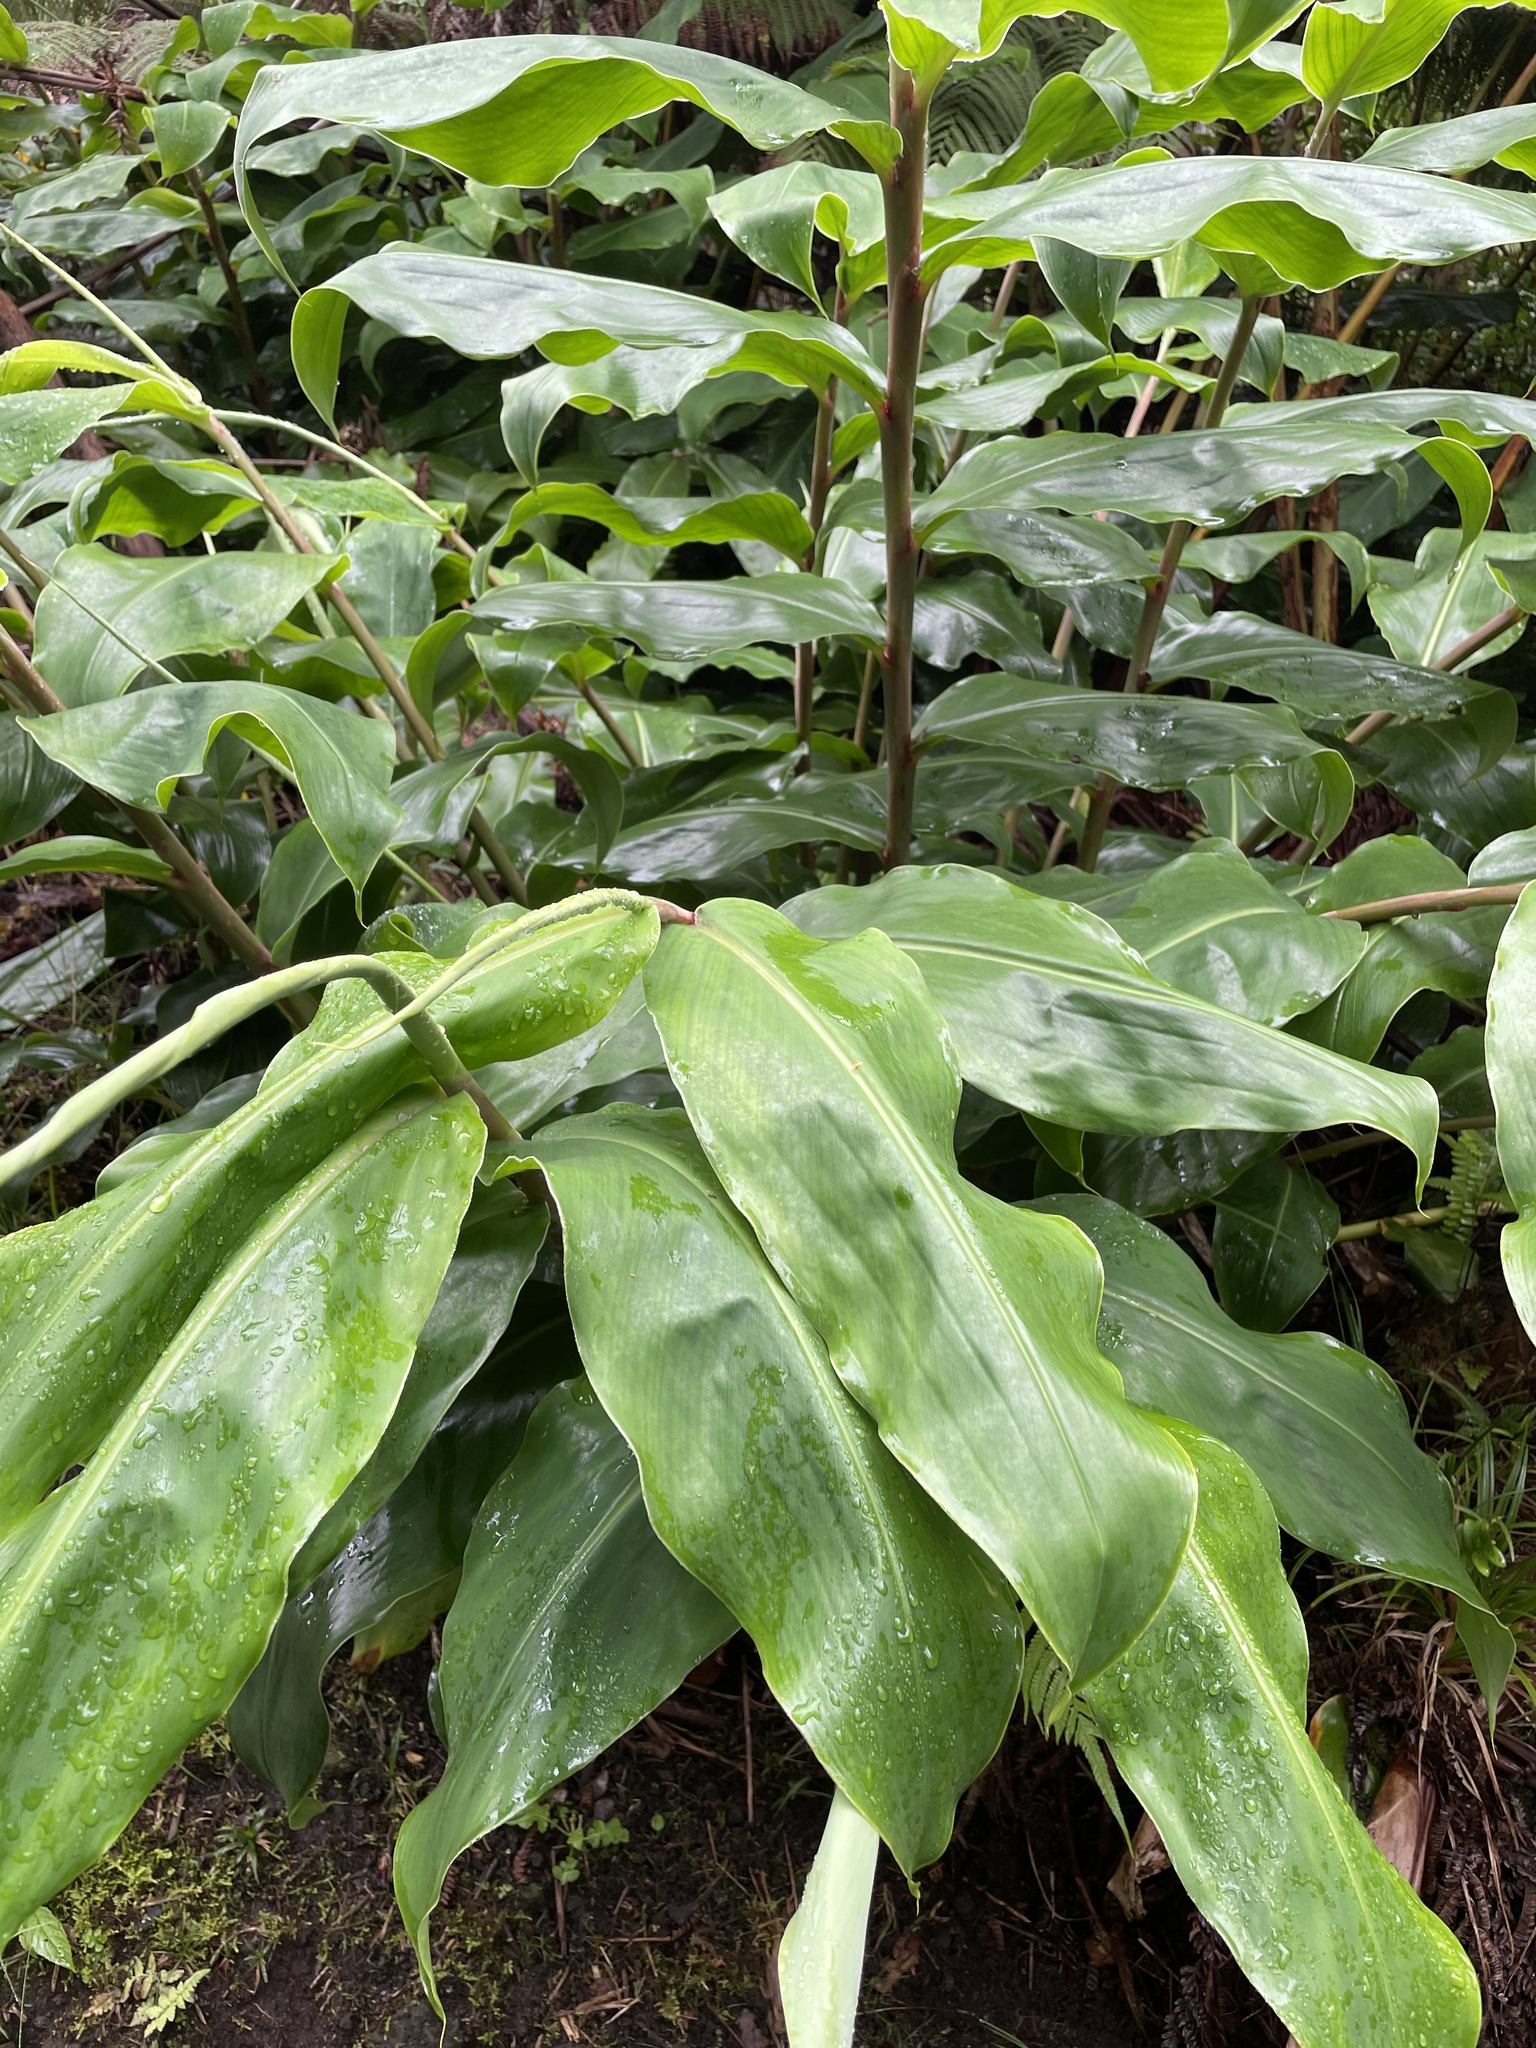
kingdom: Plantae
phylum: Tracheophyta
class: Liliopsida
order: Zingiberales
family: Zingiberaceae
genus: Hedychium
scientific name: Hedychium gardnerianum
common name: Himalayan ginger
